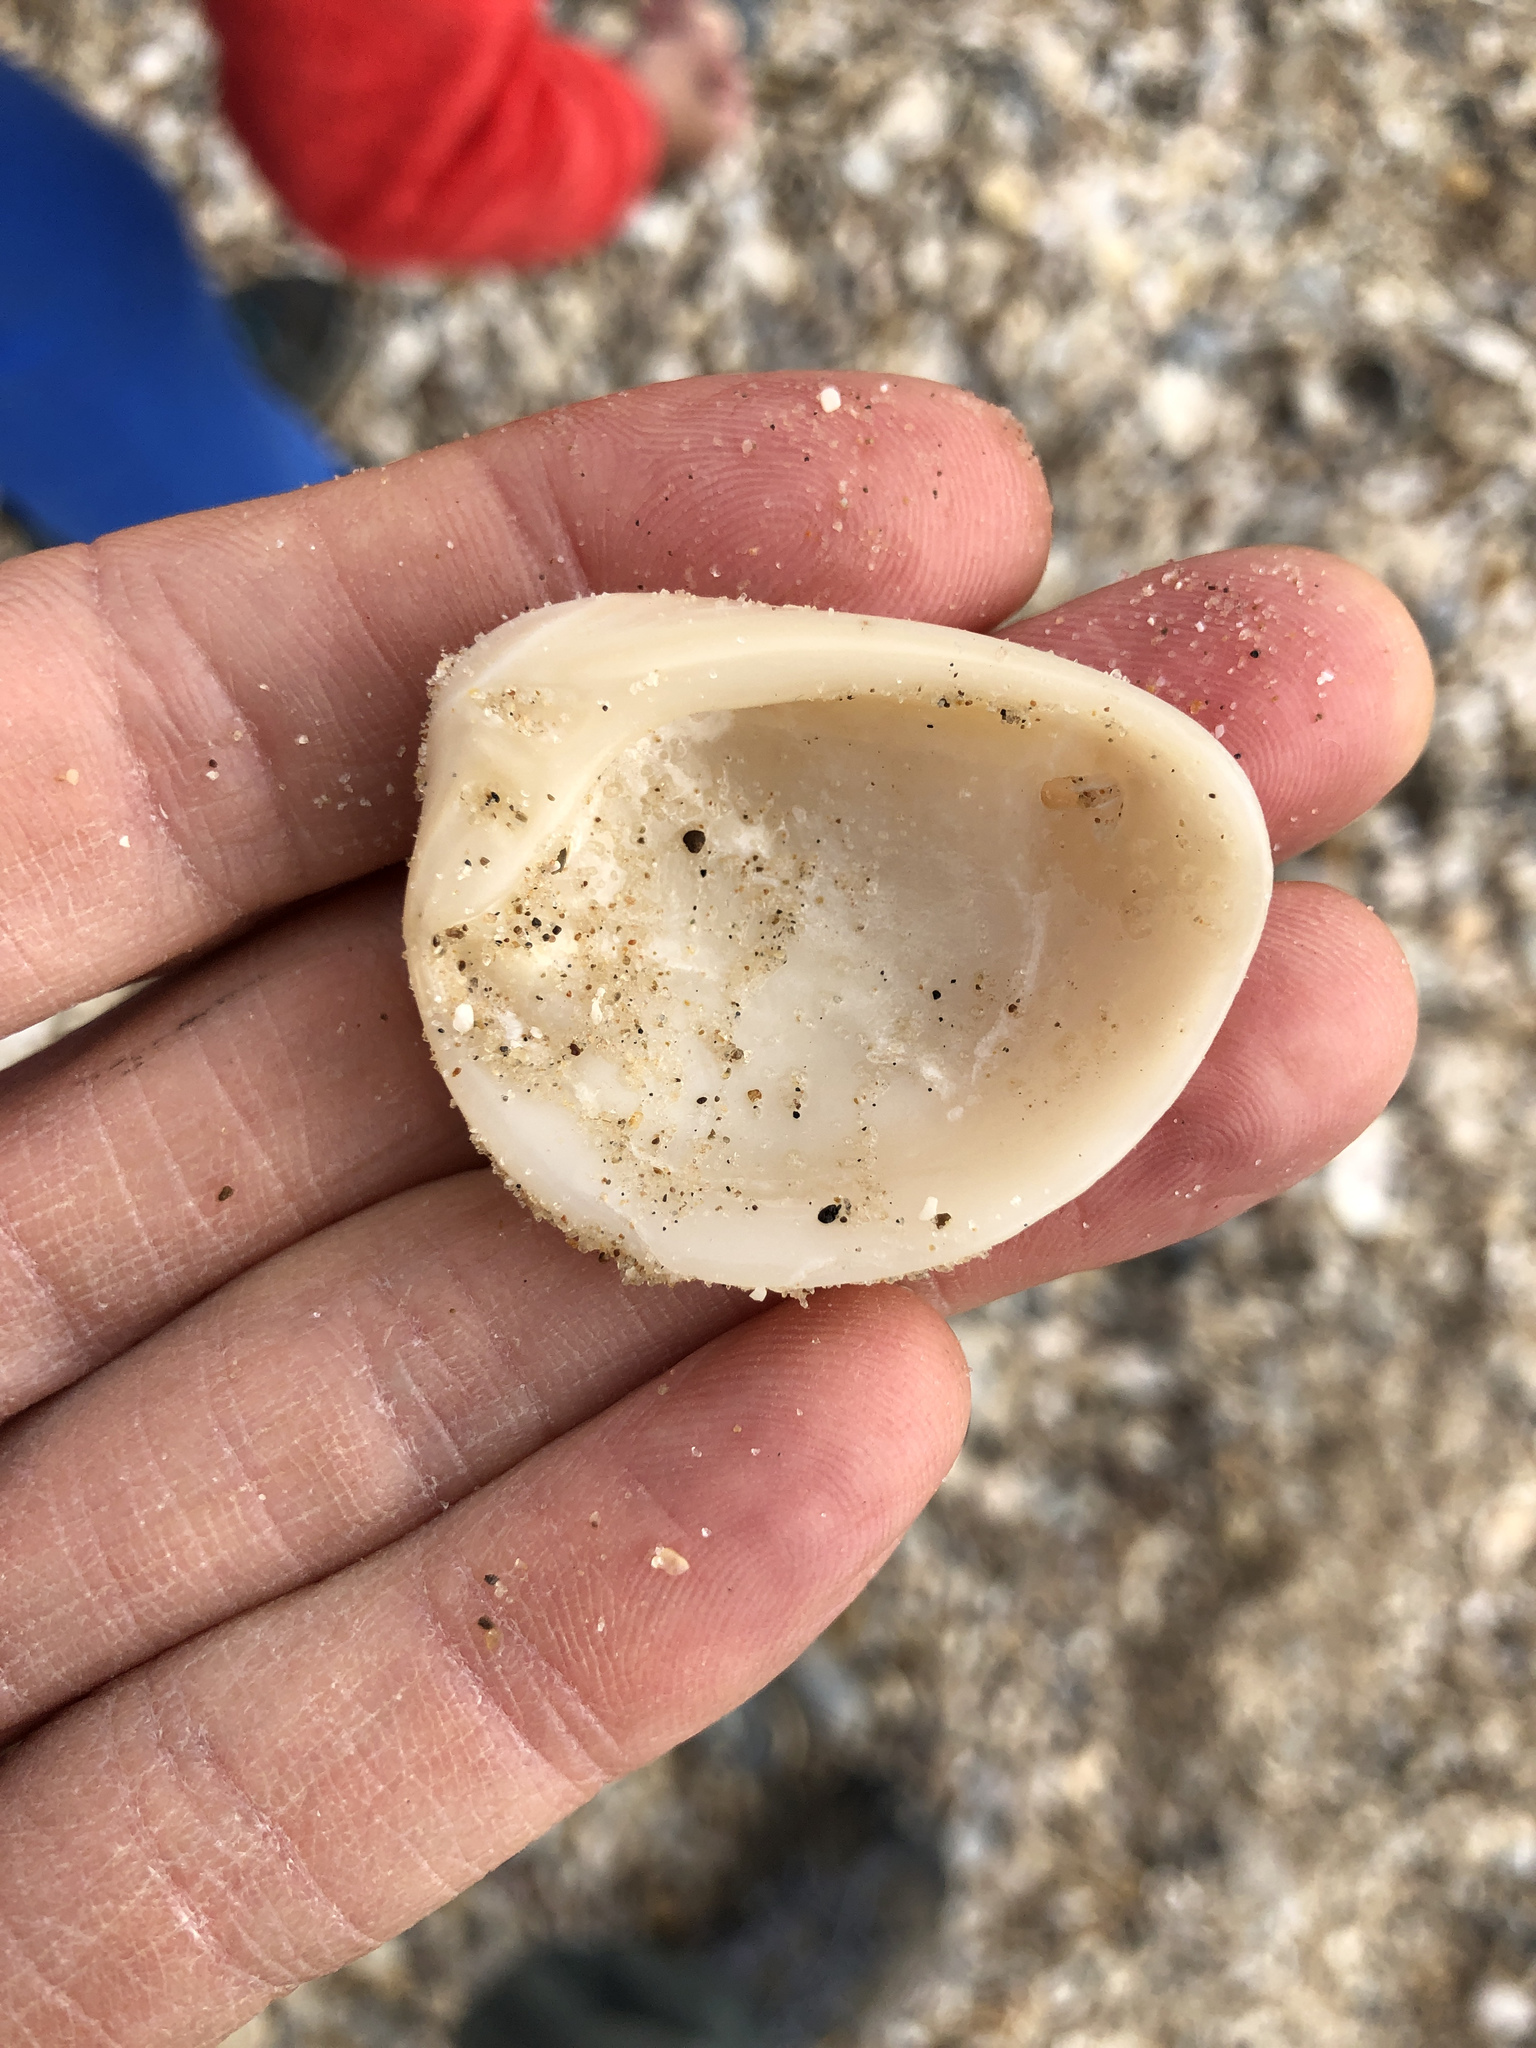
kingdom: Animalia
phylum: Mollusca
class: Bivalvia
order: Venerida
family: Mactridae
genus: Rangia
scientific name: Rangia cuneata
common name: Atlantic rangia
